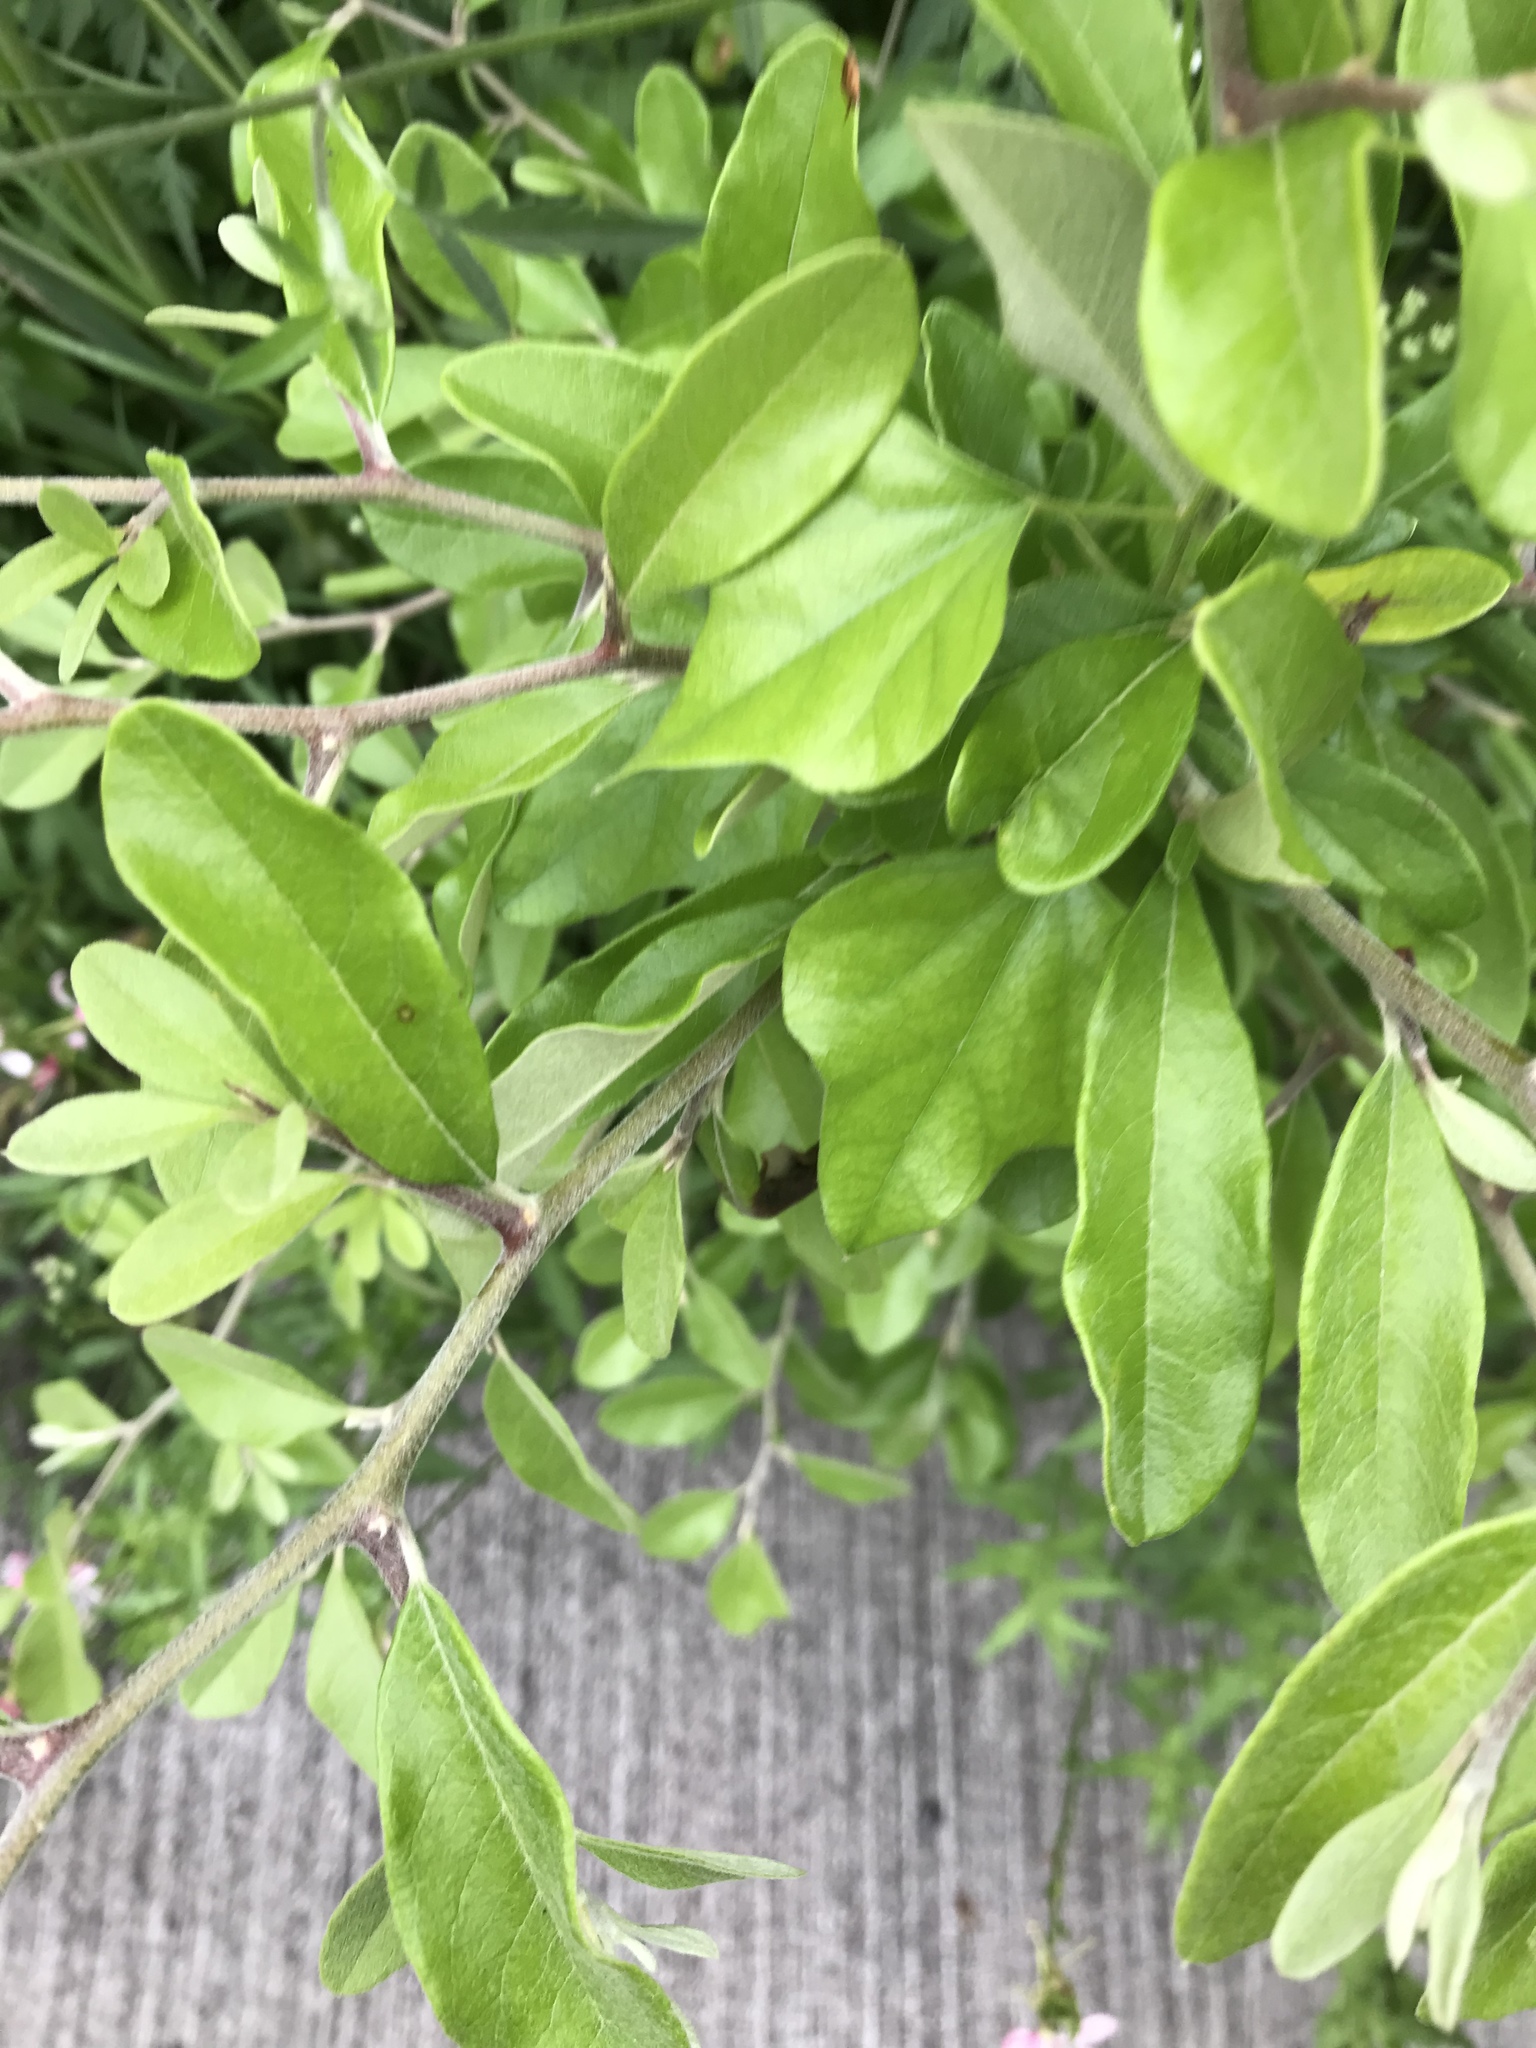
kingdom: Plantae
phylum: Tracheophyta
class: Magnoliopsida
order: Ericales
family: Sapotaceae
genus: Sideroxylon
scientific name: Sideroxylon lanuginosum
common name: Chittamwood
